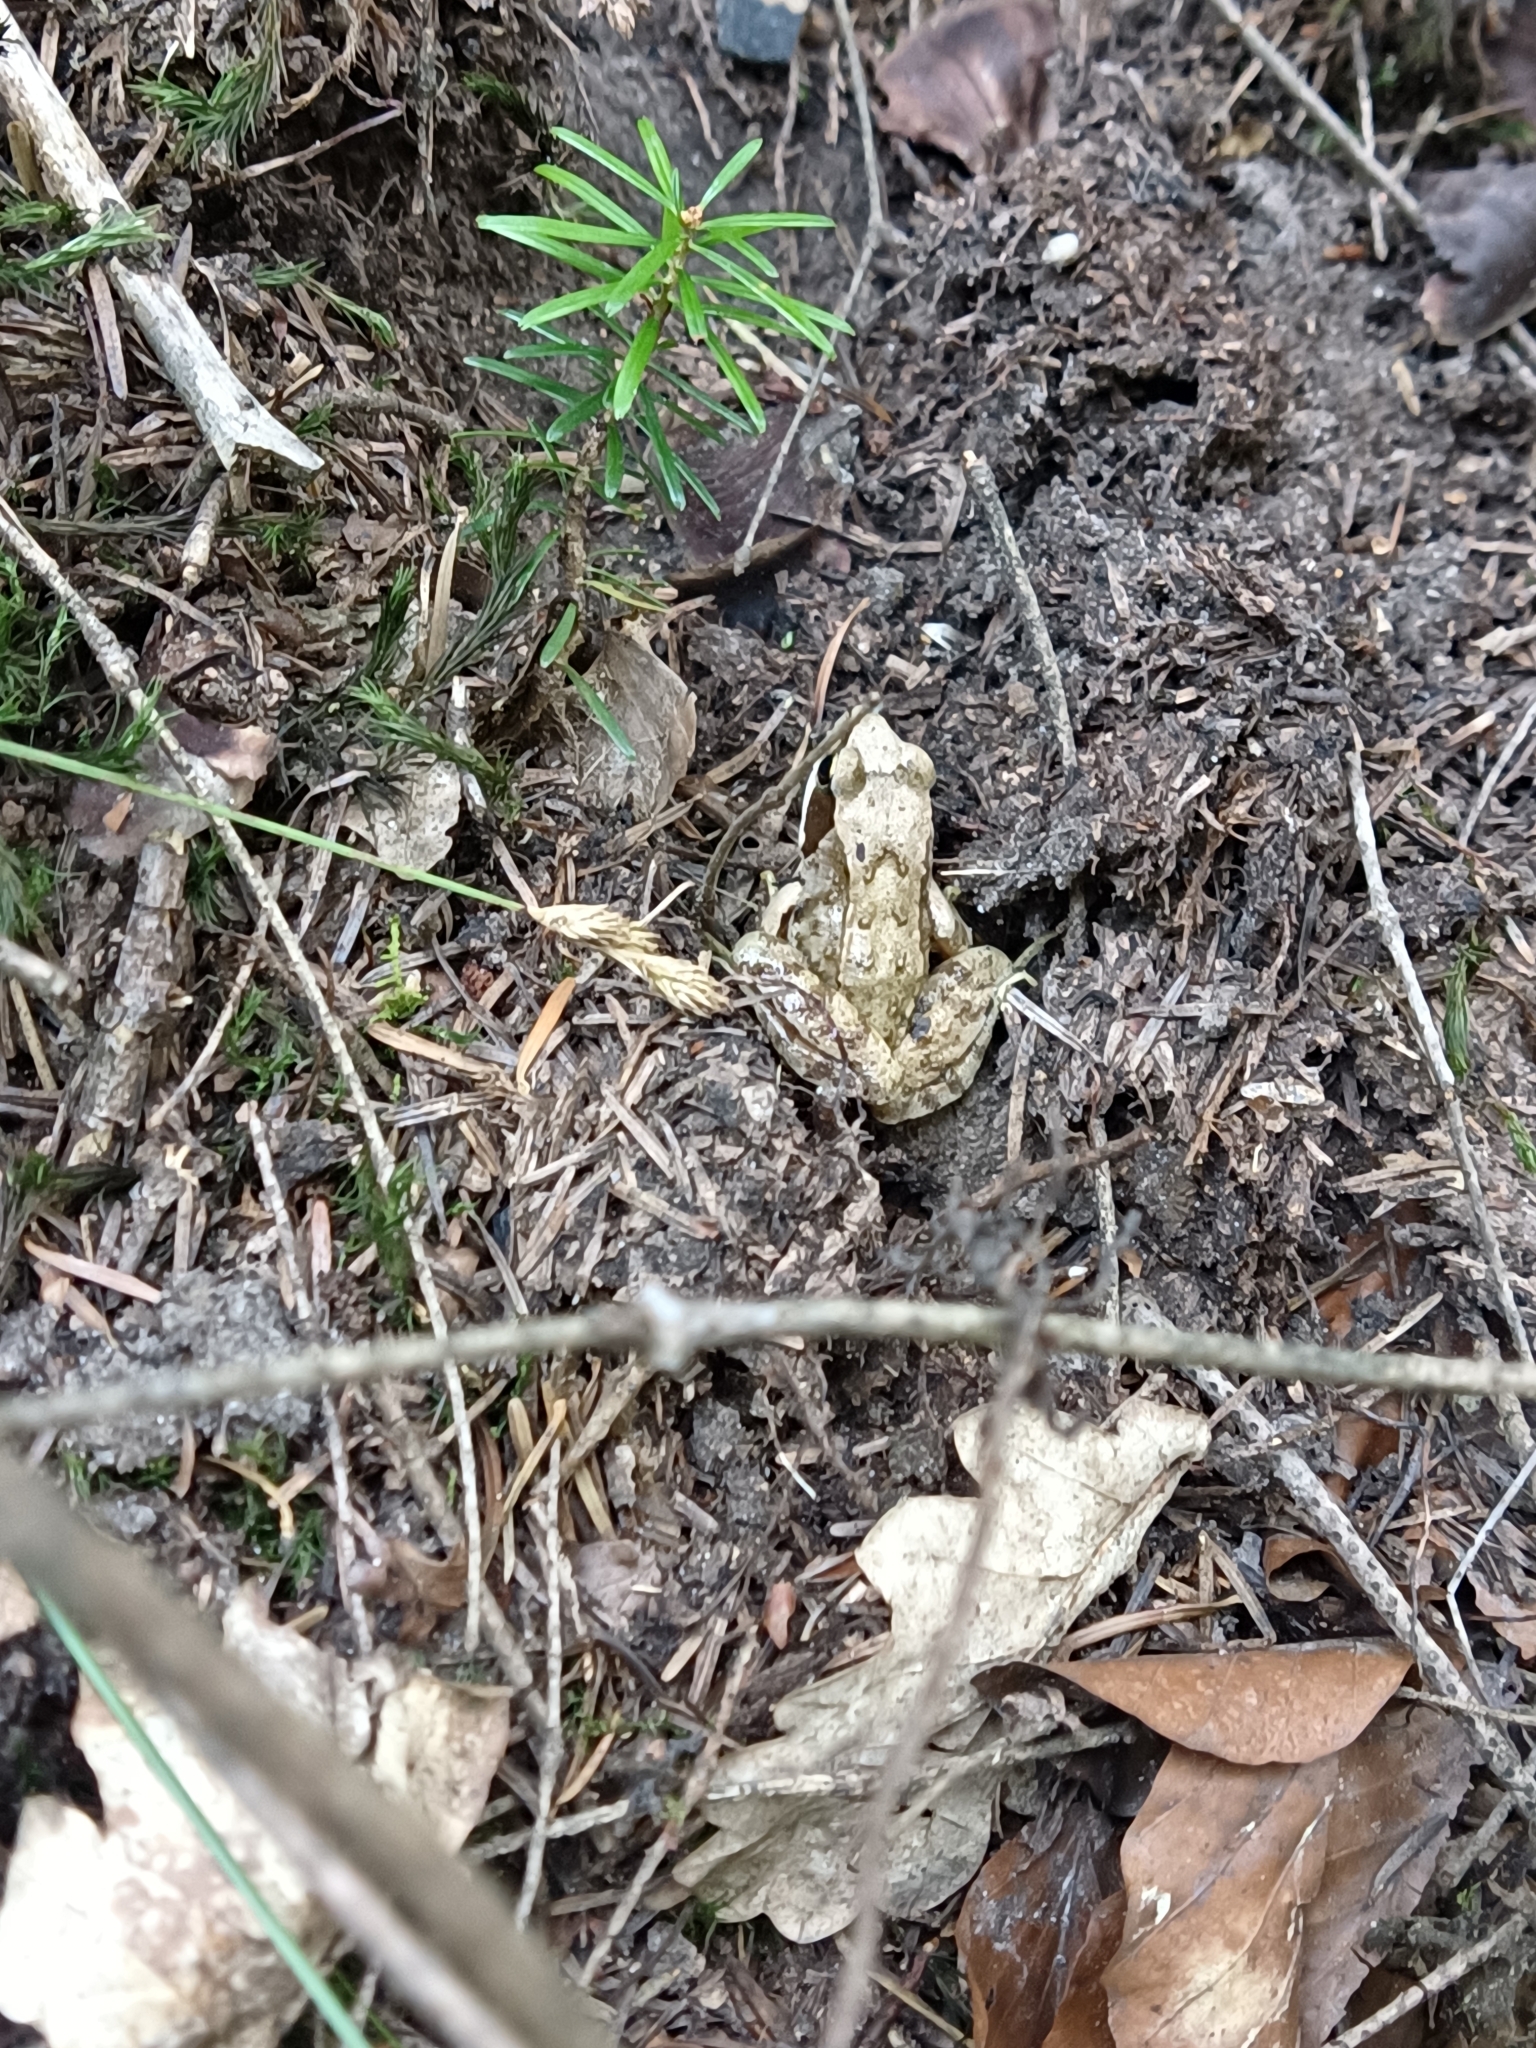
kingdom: Animalia
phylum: Arthropoda
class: Insecta
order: Coleoptera
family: Geotrupidae
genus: Anoplotrupes
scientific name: Anoplotrupes stercorosus
